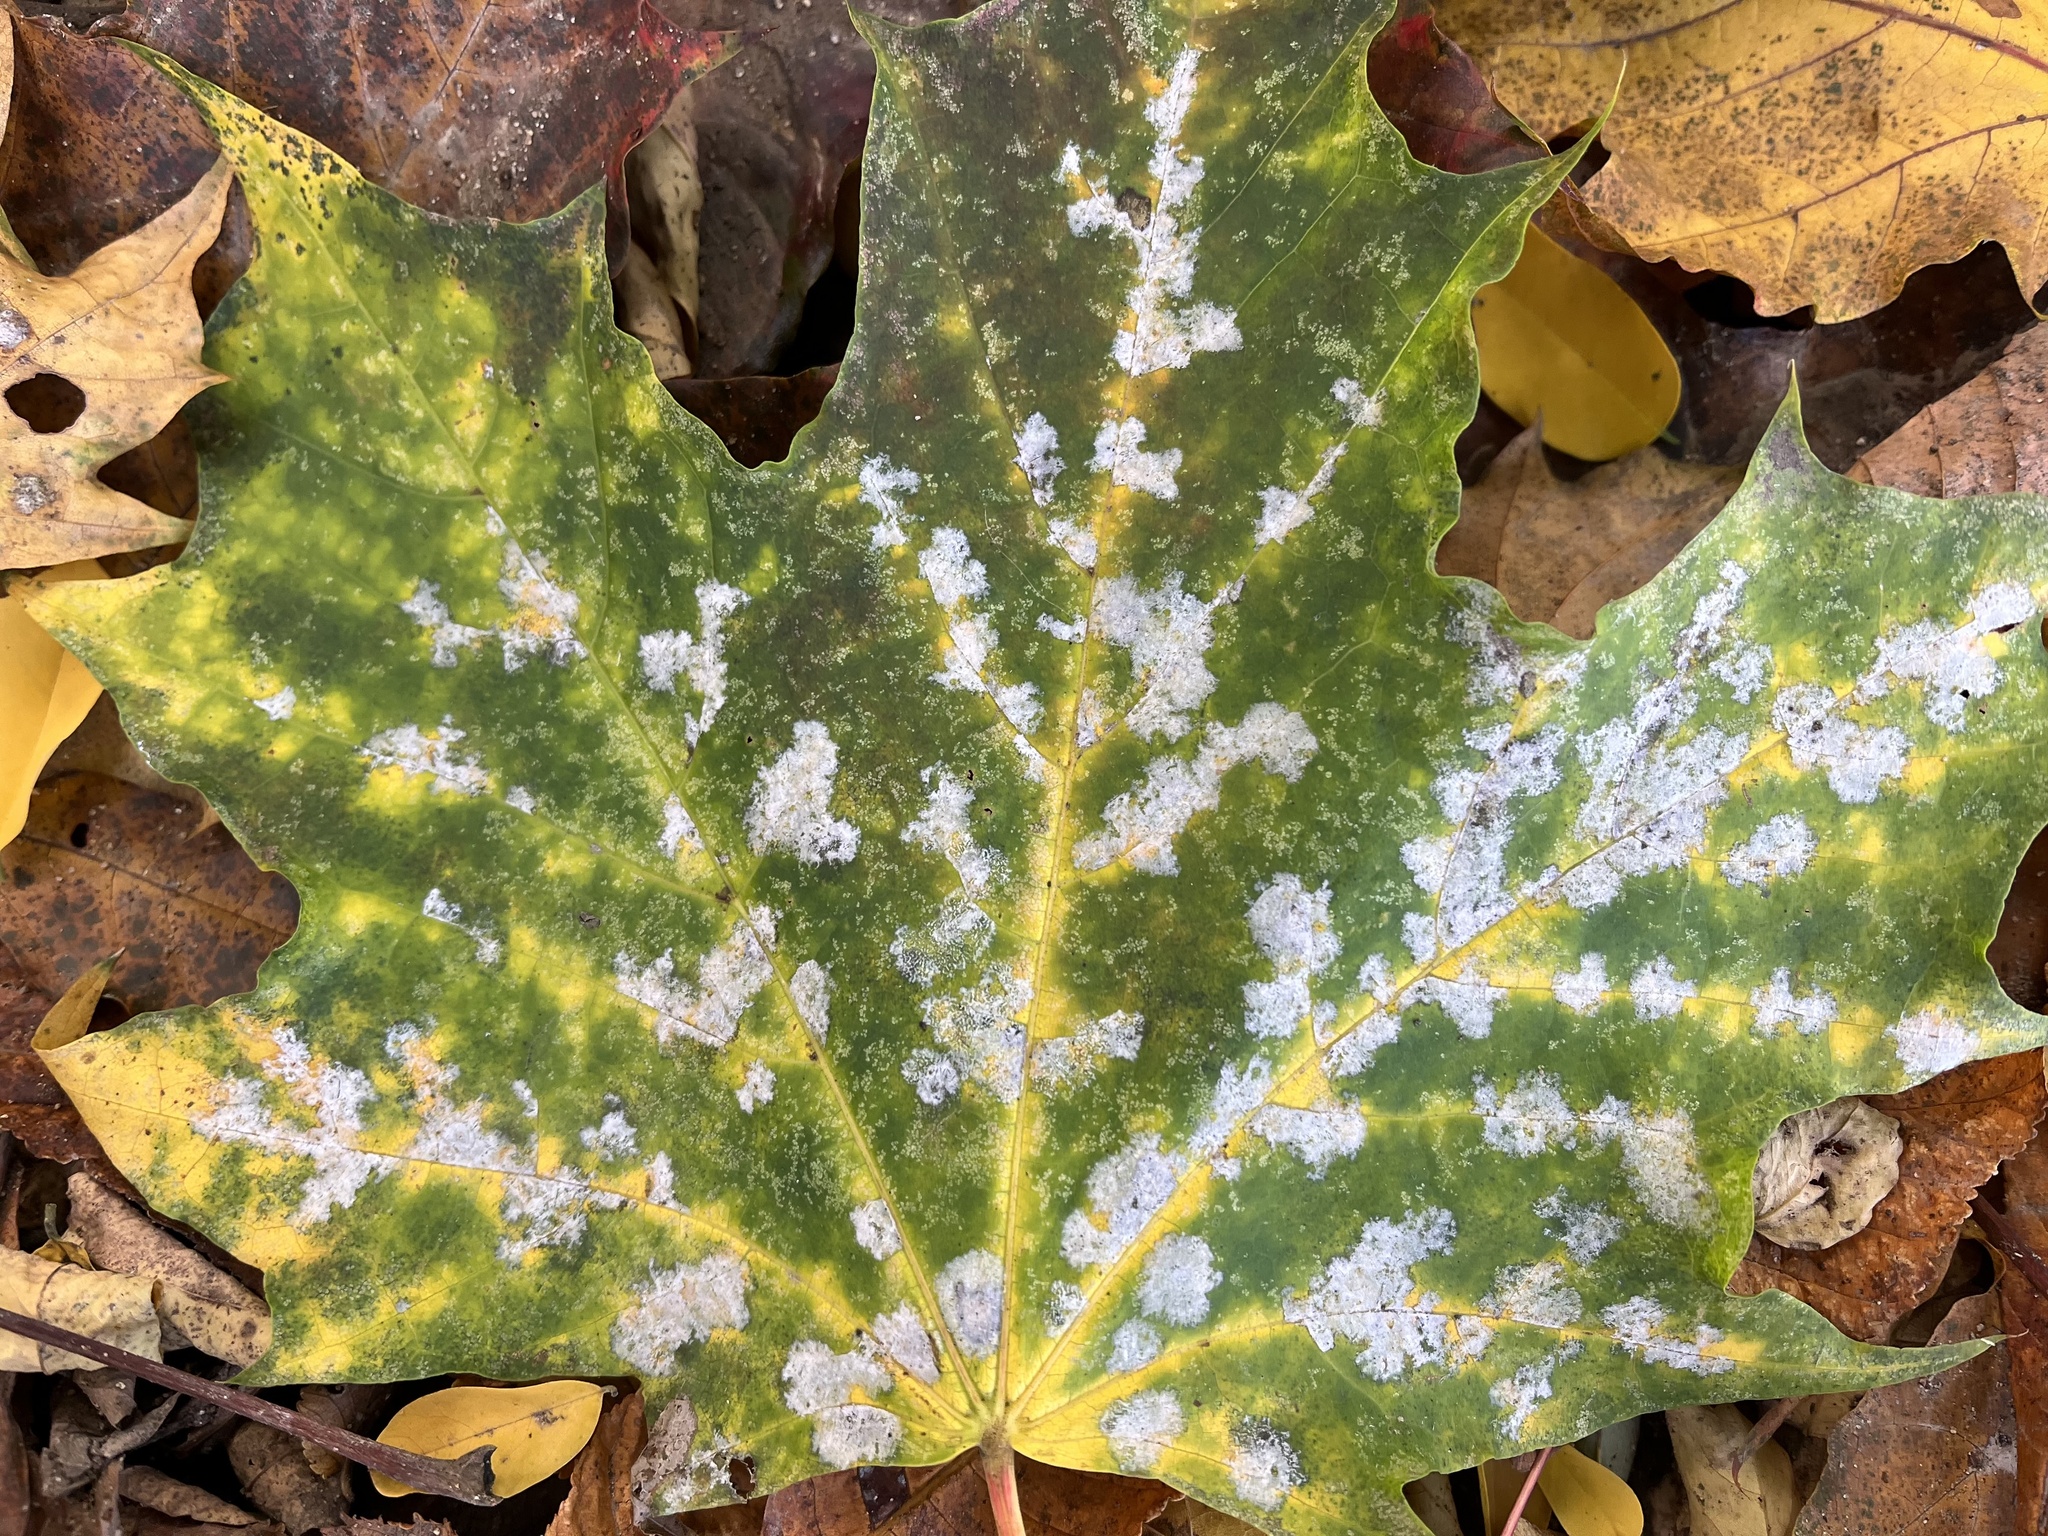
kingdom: Fungi
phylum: Ascomycota
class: Leotiomycetes
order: Helotiales
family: Erysiphaceae
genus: Sawadaea
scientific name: Sawadaea tulasnei
